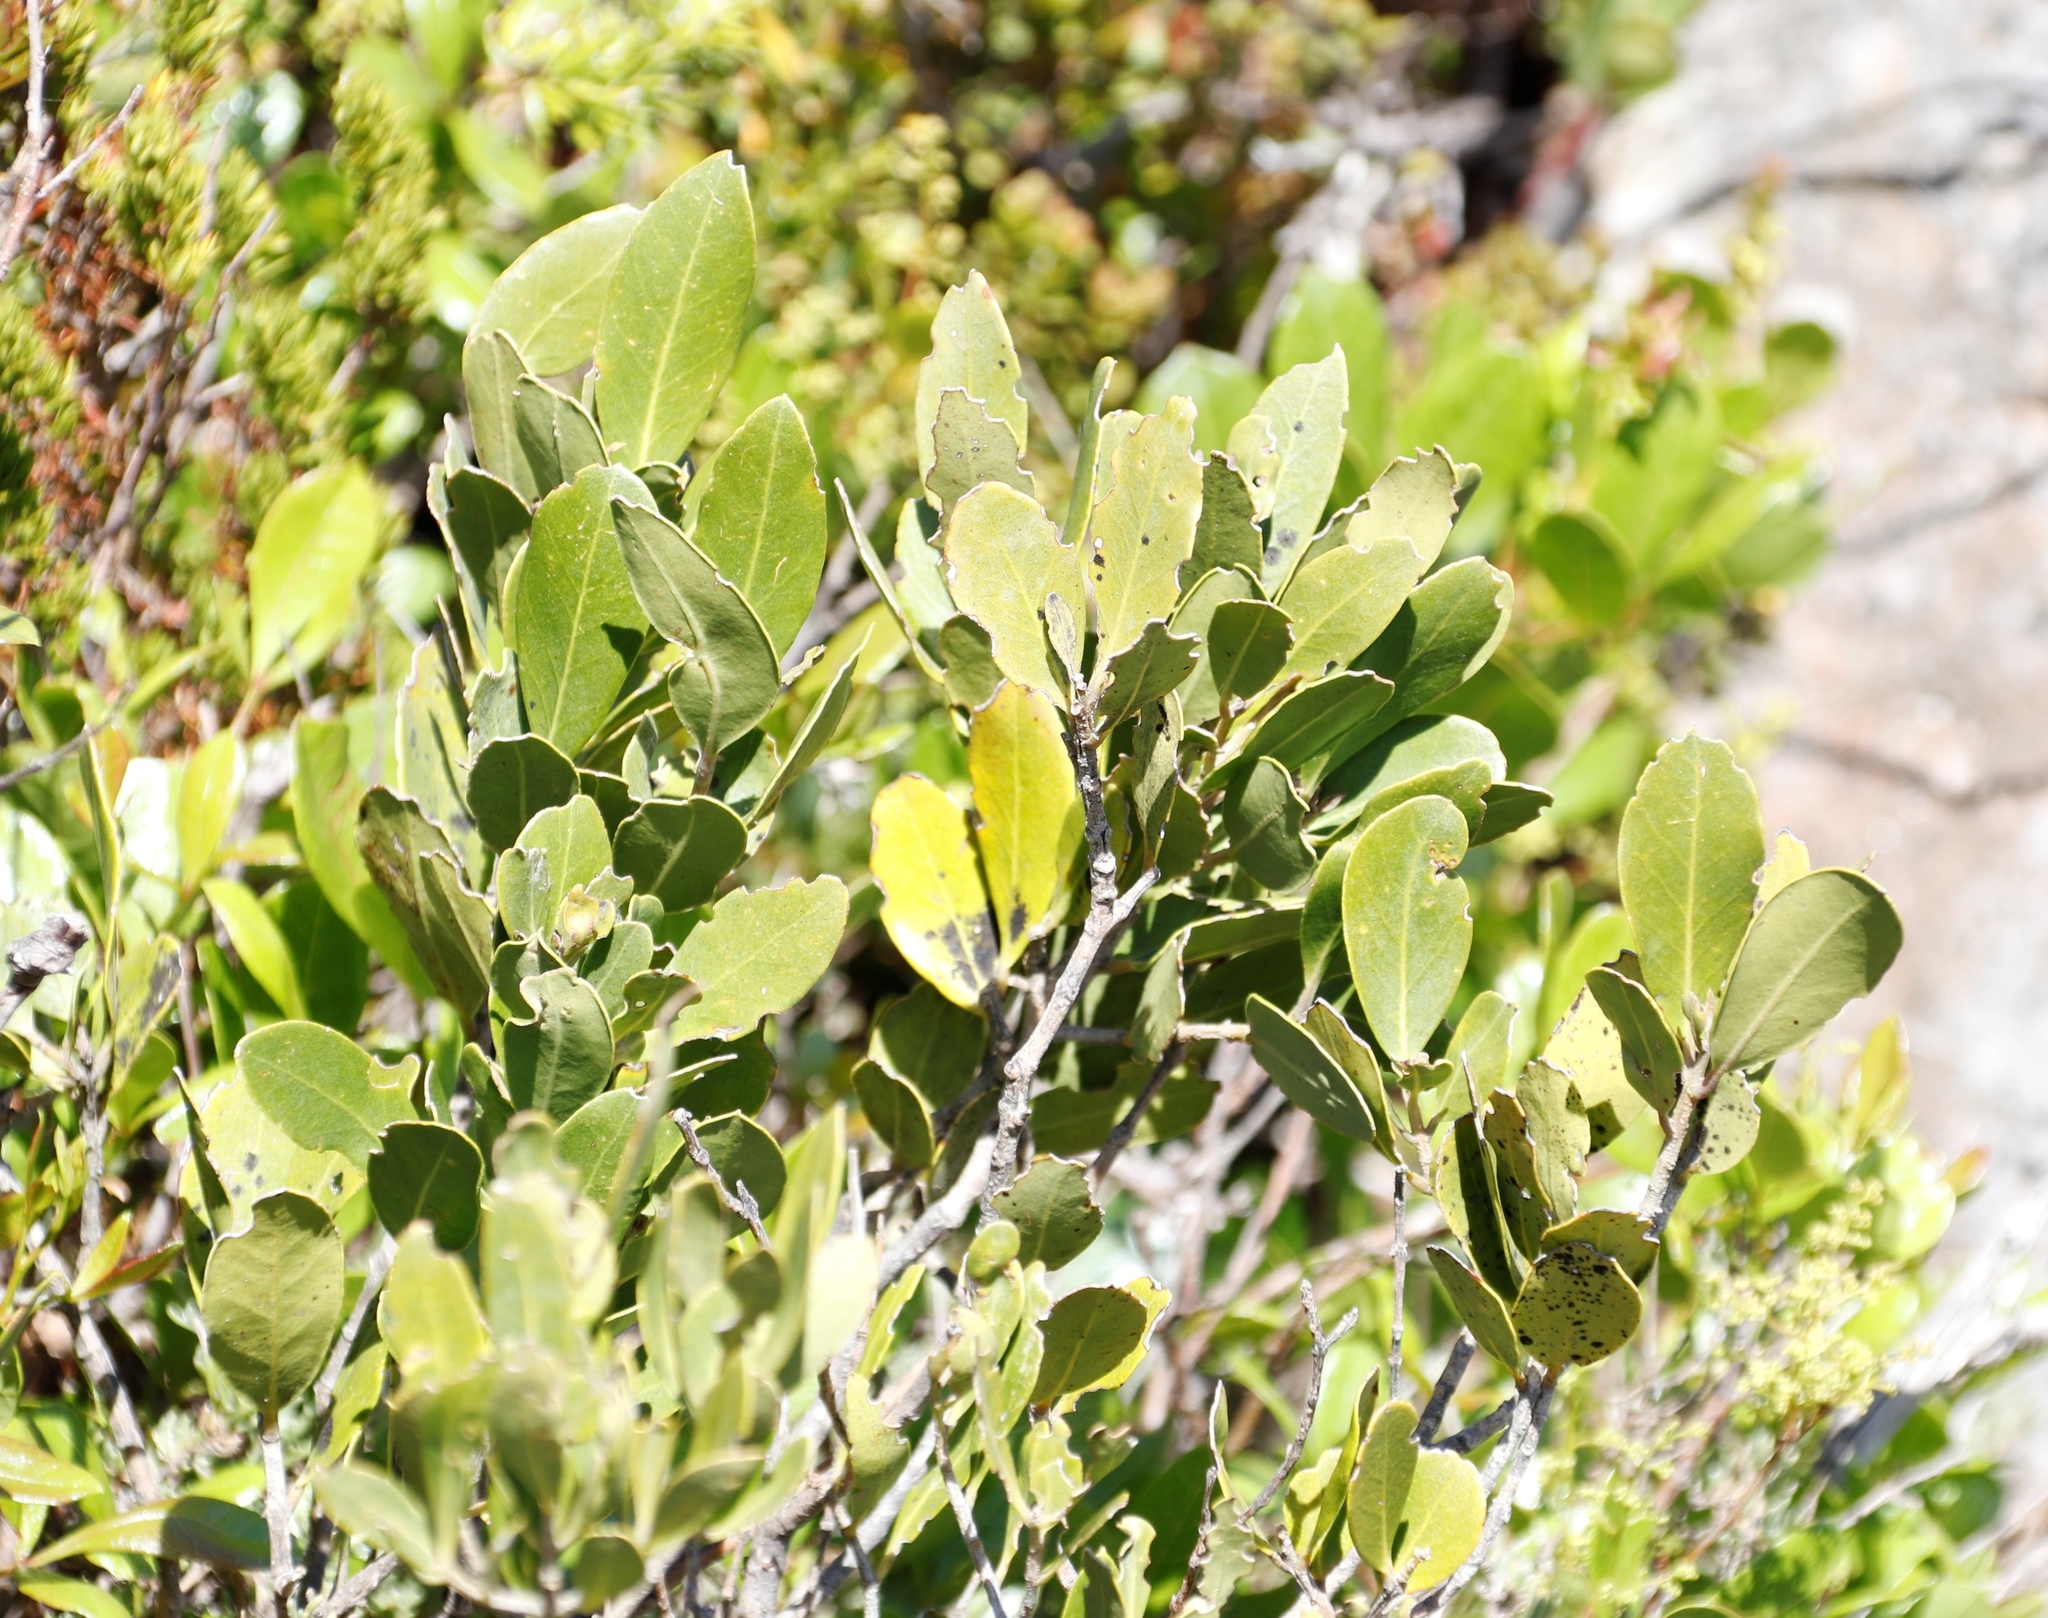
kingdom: Plantae
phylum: Tracheophyta
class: Magnoliopsida
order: Lamiales
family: Oleaceae
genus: Olea
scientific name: Olea capensis
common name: Black ironwood
